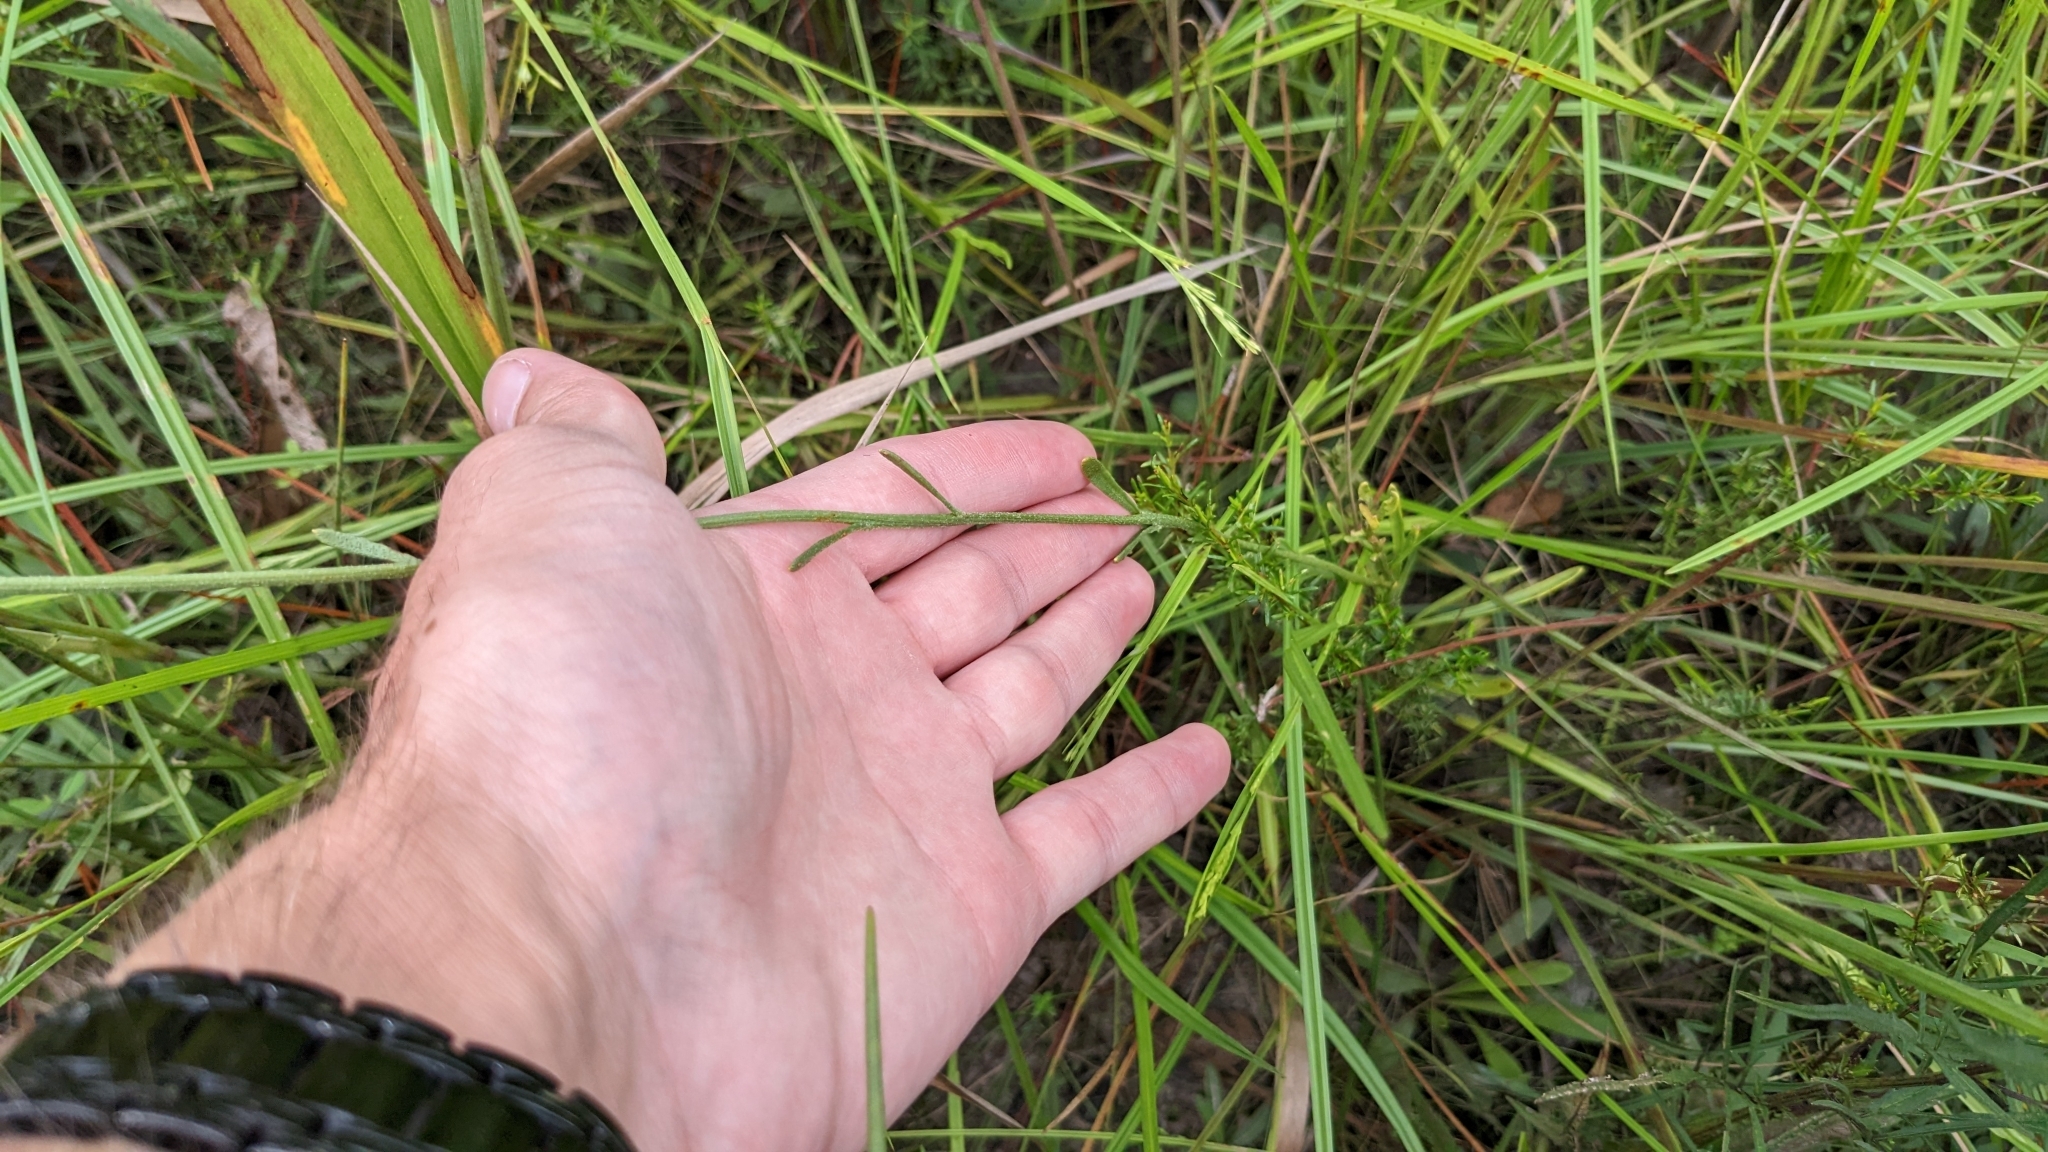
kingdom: Plantae
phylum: Tracheophyta
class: Magnoliopsida
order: Asterales
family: Asteraceae
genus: Balduina
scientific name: Balduina uniflora
